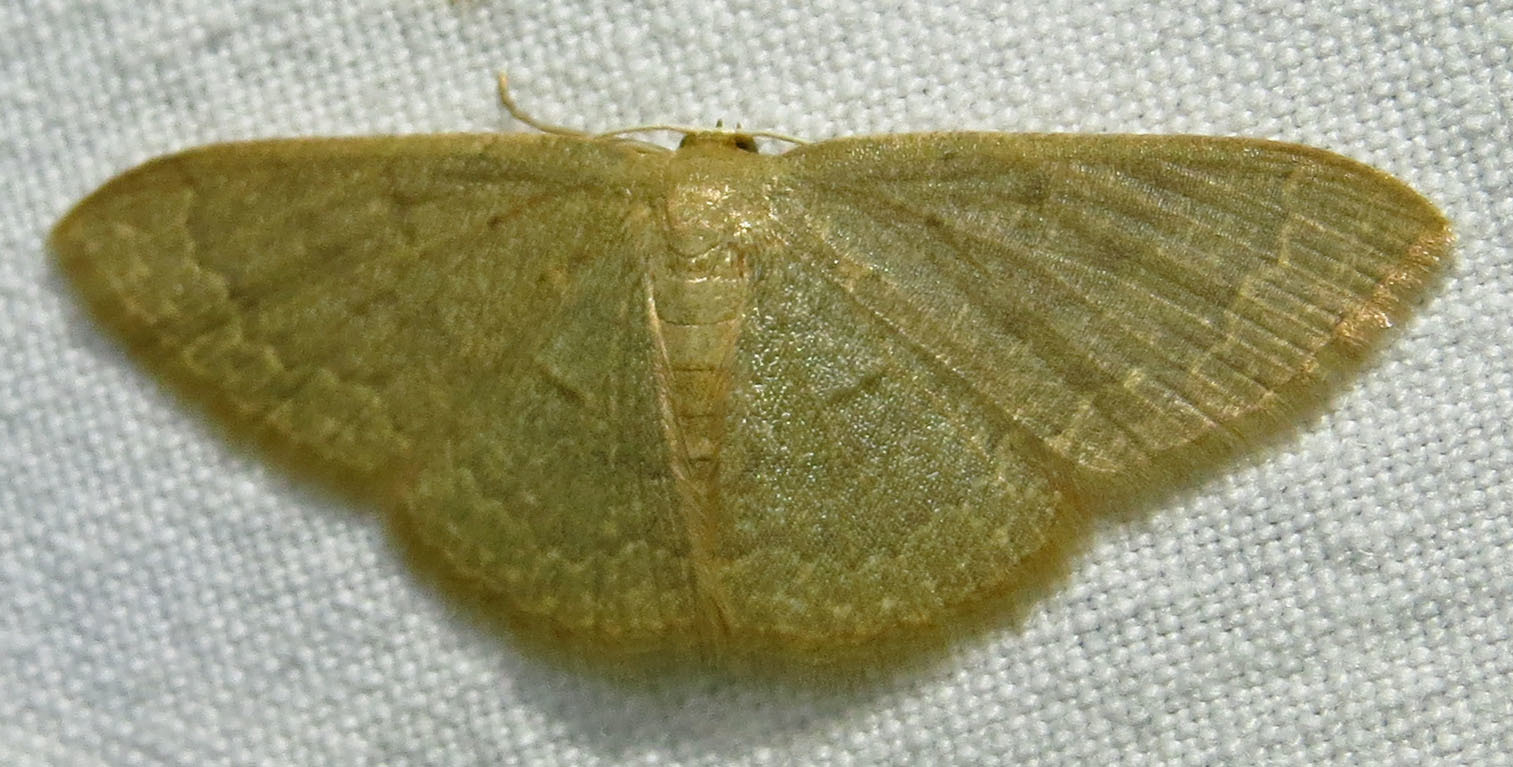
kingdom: Animalia
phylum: Arthropoda
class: Insecta
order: Lepidoptera
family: Geometridae
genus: Pleuroprucha
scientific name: Pleuroprucha insulsaria
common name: Common tan wave
